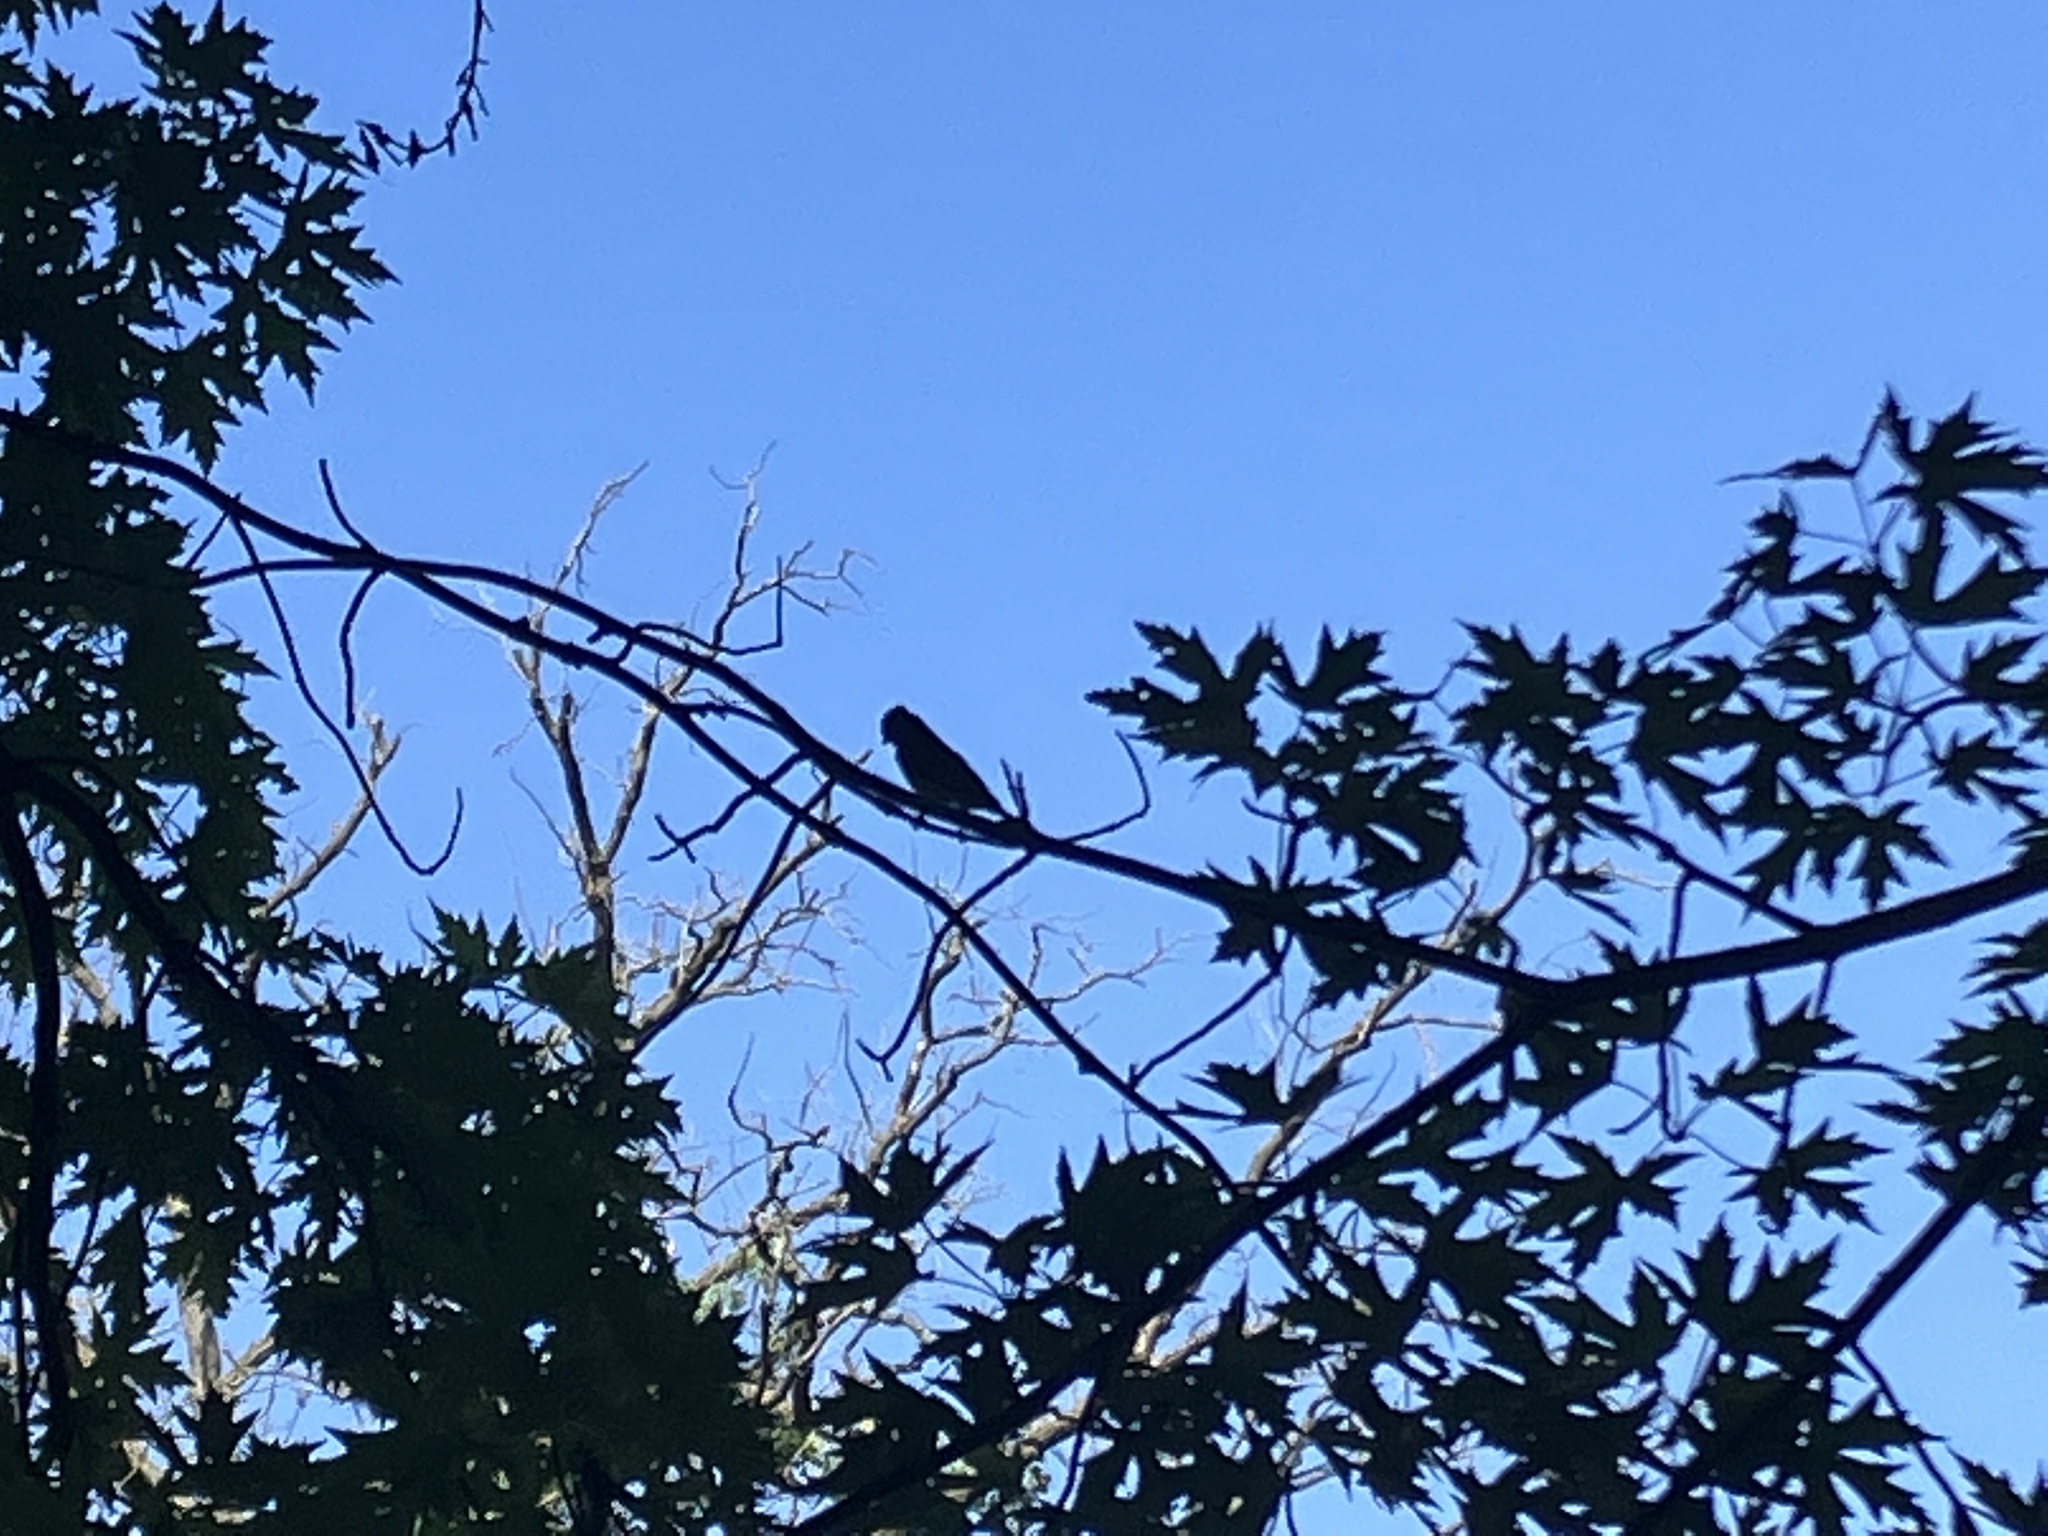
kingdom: Animalia
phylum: Chordata
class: Aves
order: Passeriformes
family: Tyrannidae
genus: Myiarchus
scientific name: Myiarchus crinitus
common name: Great crested flycatcher
